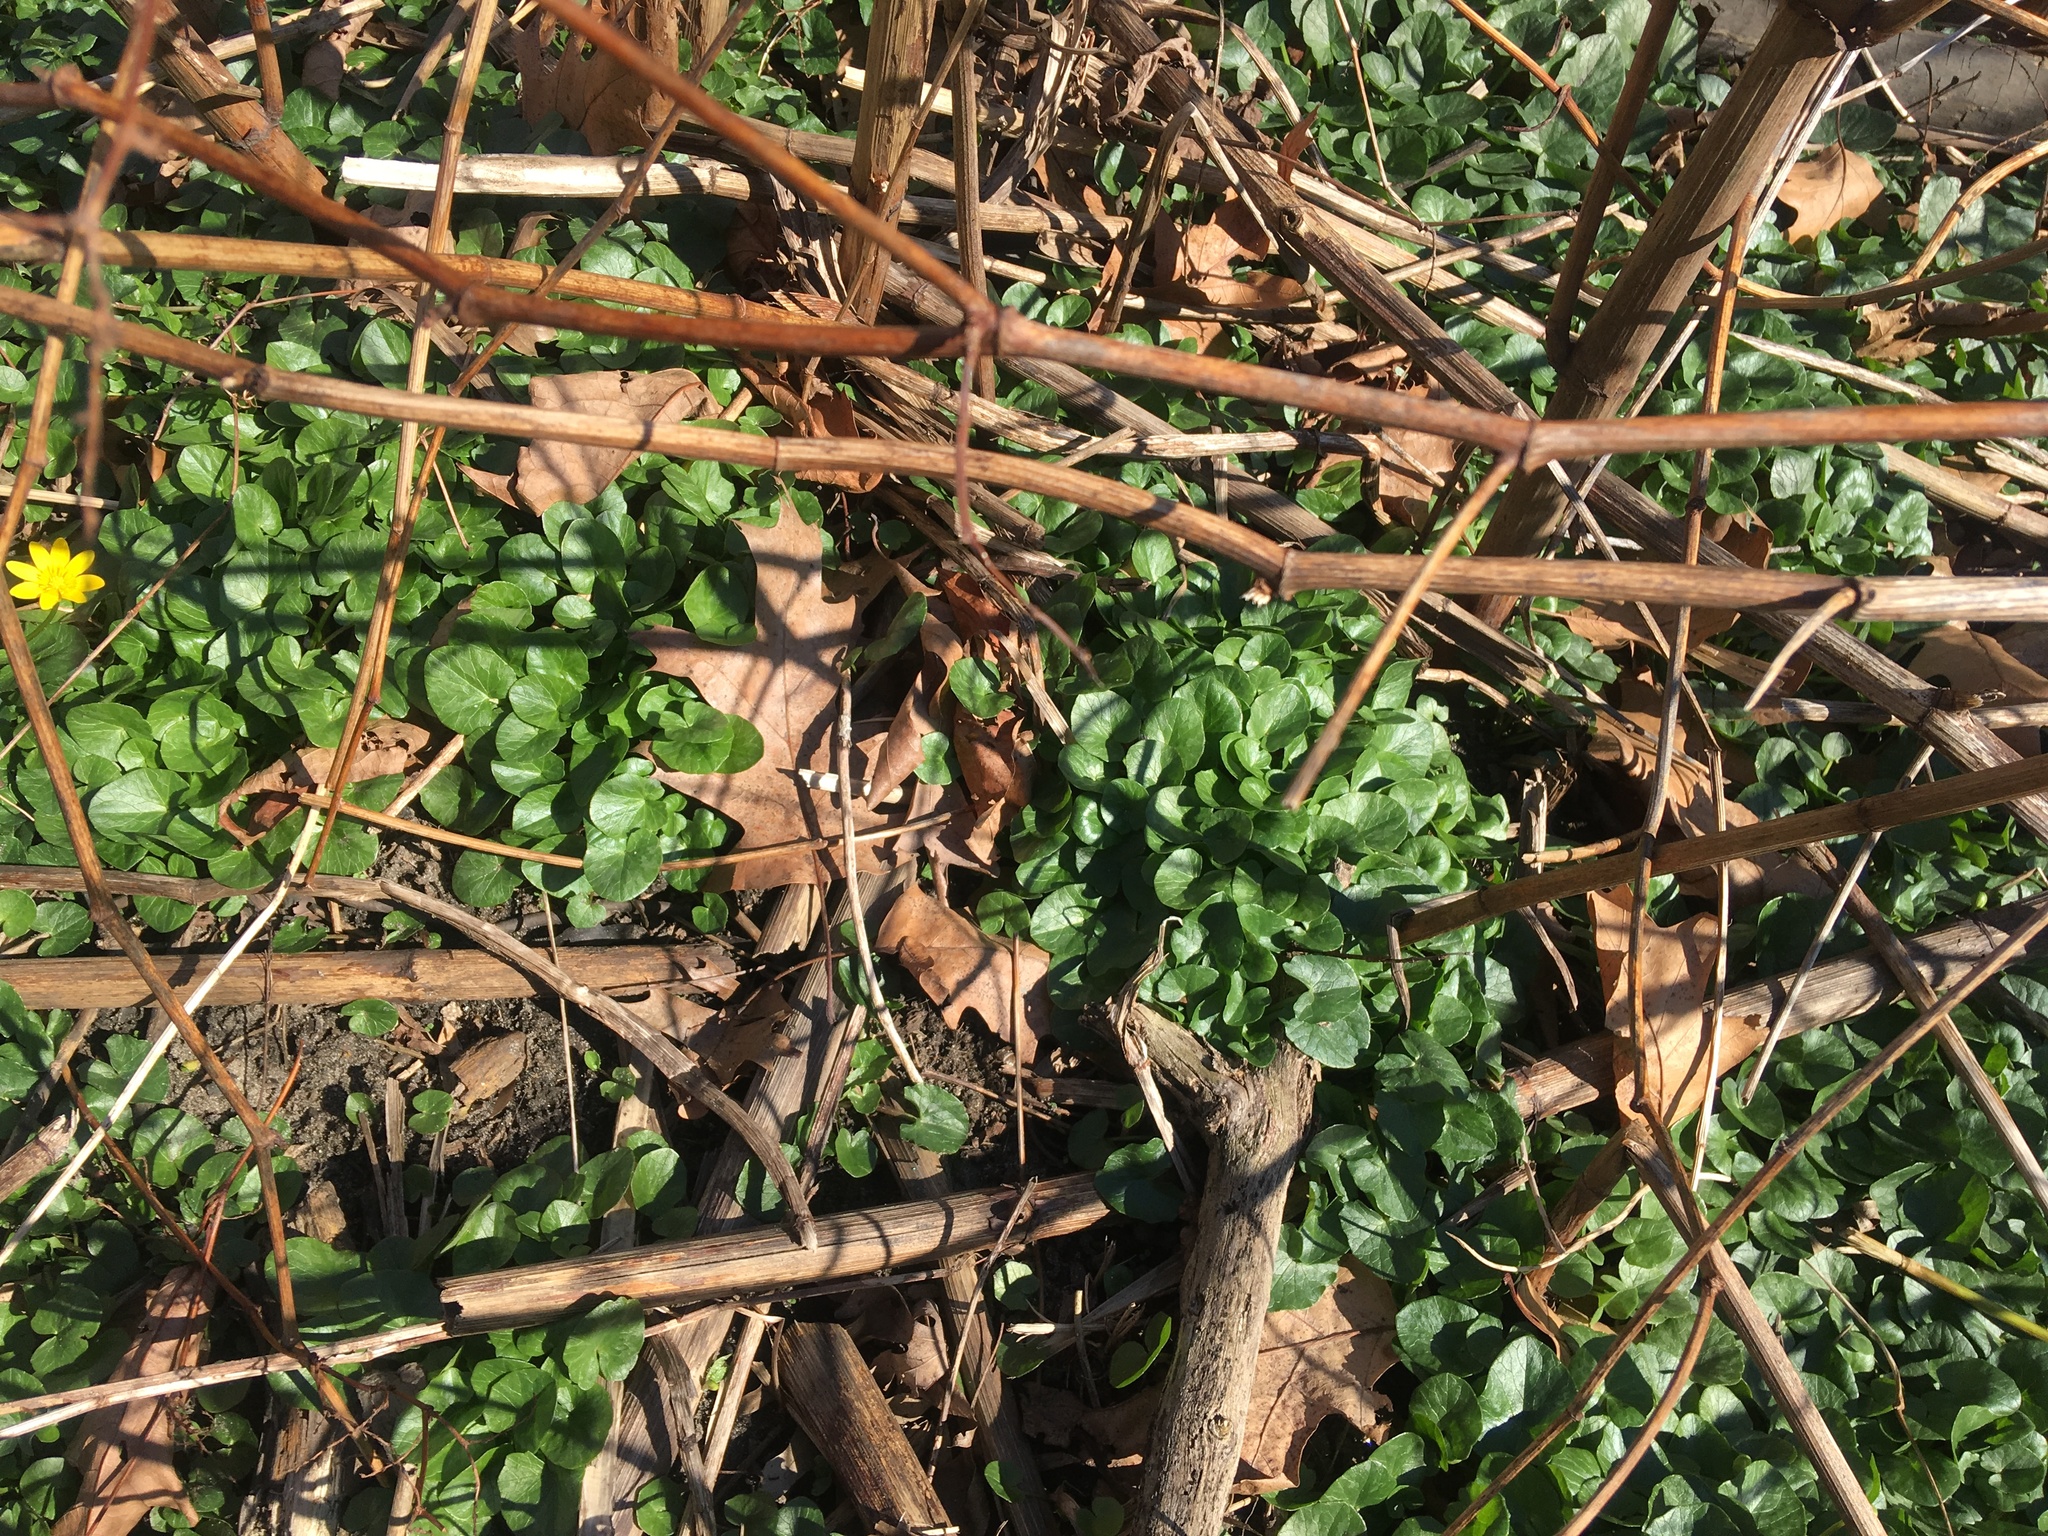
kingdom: Plantae
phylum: Tracheophyta
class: Magnoliopsida
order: Ranunculales
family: Ranunculaceae
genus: Ficaria
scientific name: Ficaria verna
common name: Lesser celandine
